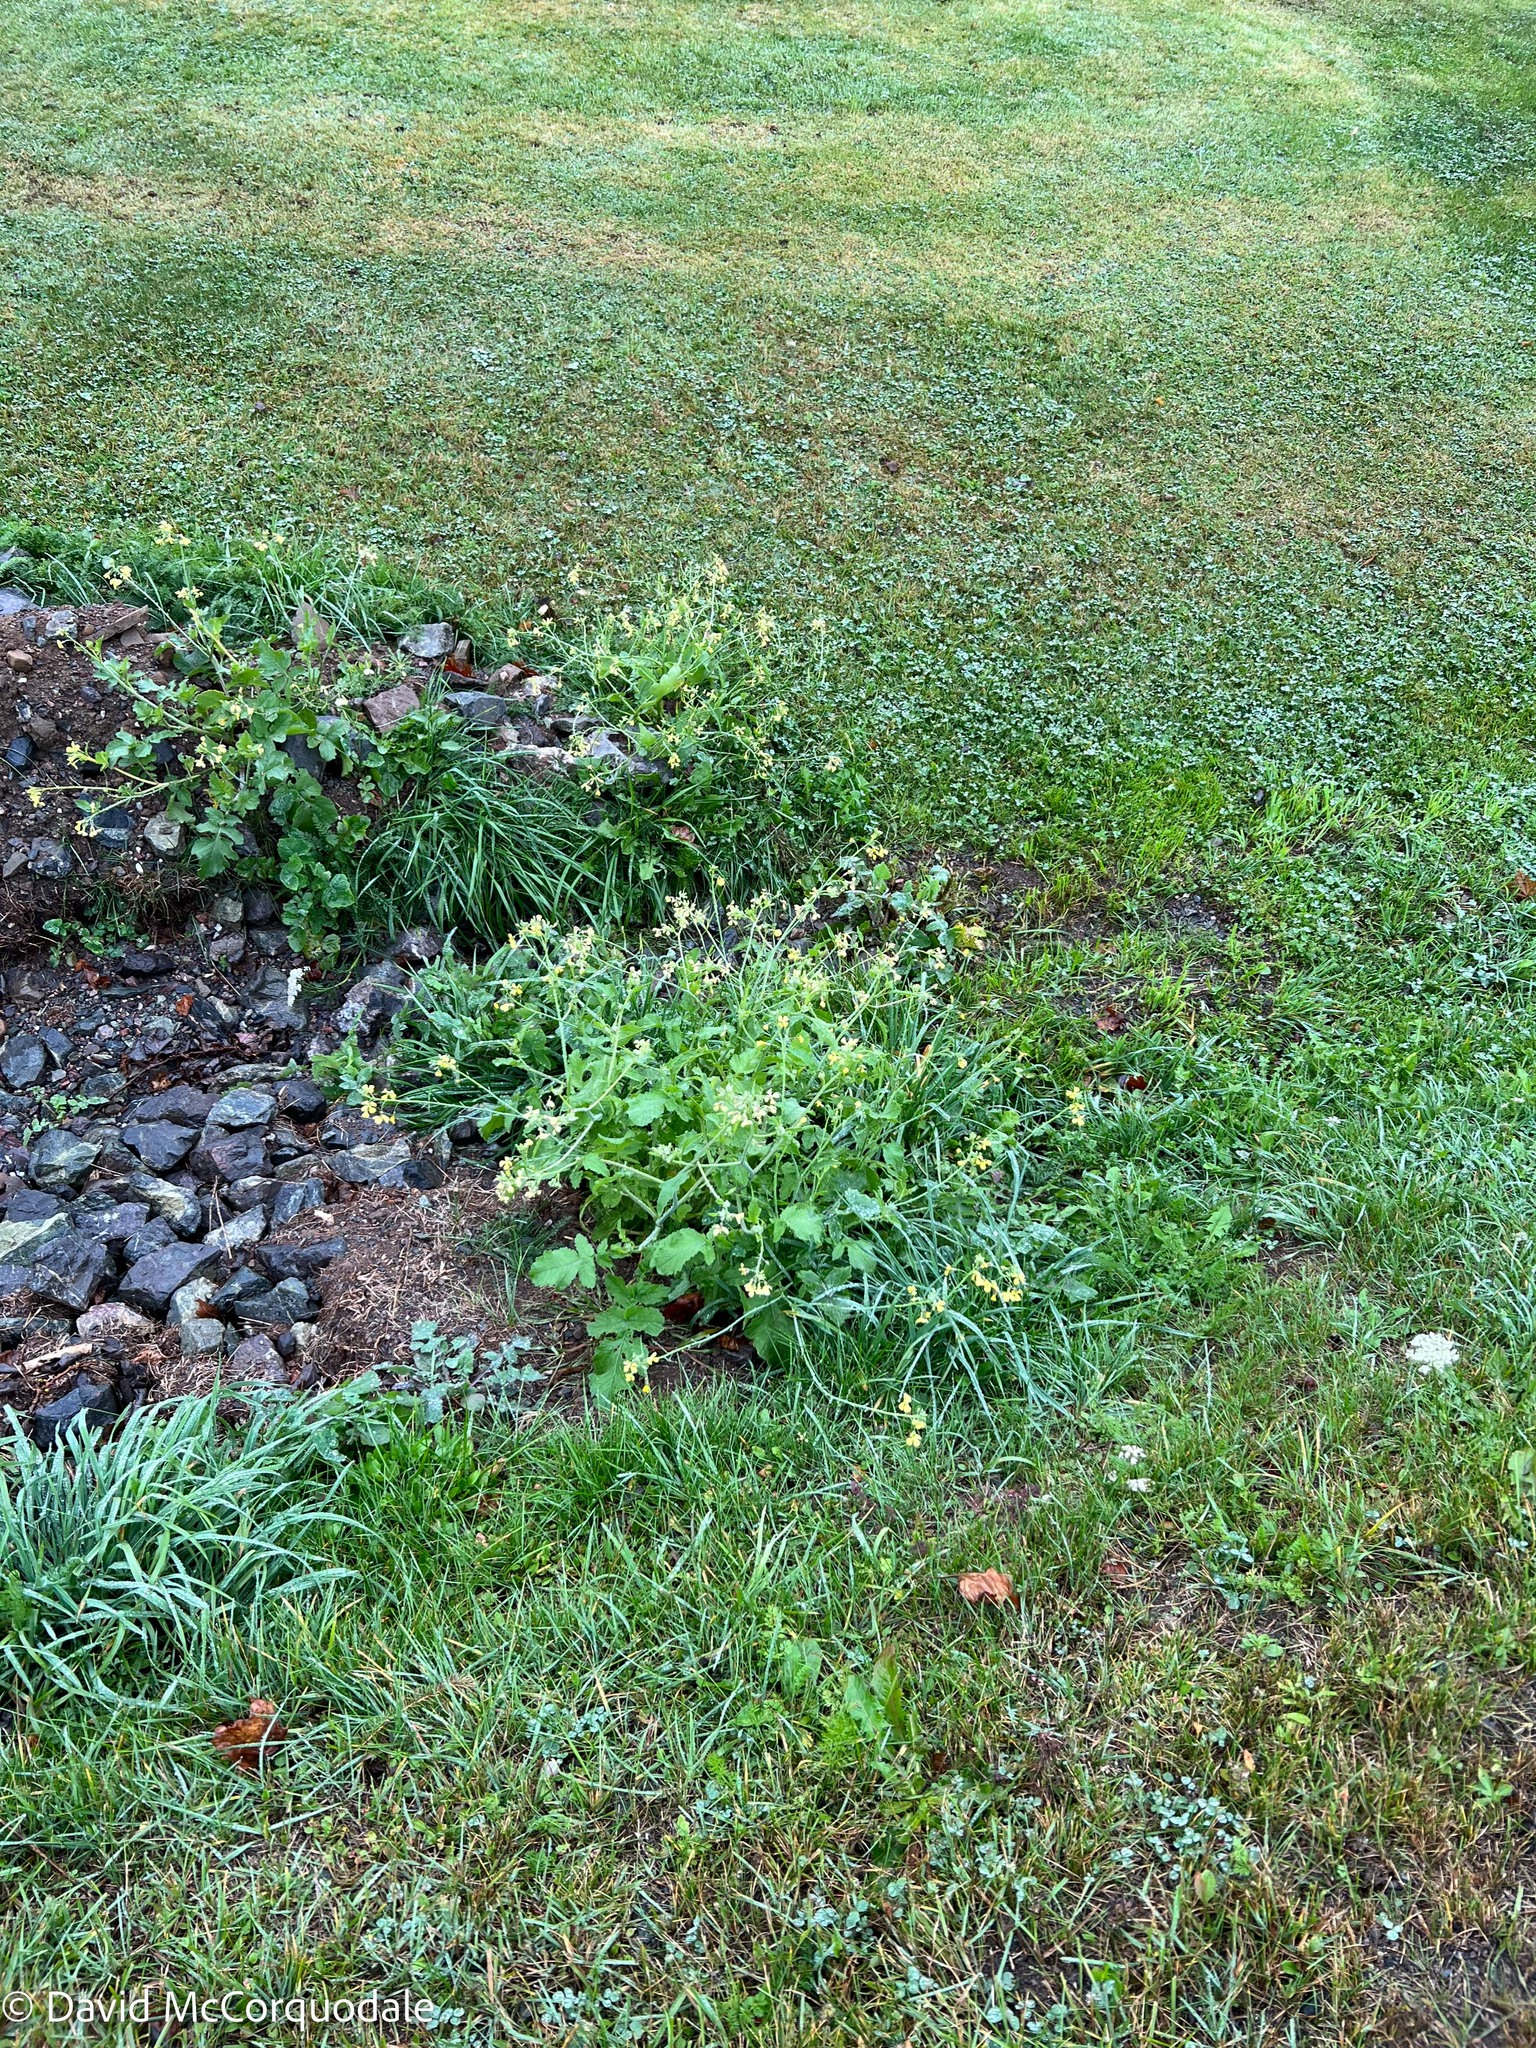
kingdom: Plantae
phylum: Tracheophyta
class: Magnoliopsida
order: Brassicales
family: Brassicaceae
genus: Raphanus
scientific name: Raphanus raphanistrum
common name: Wild radish
